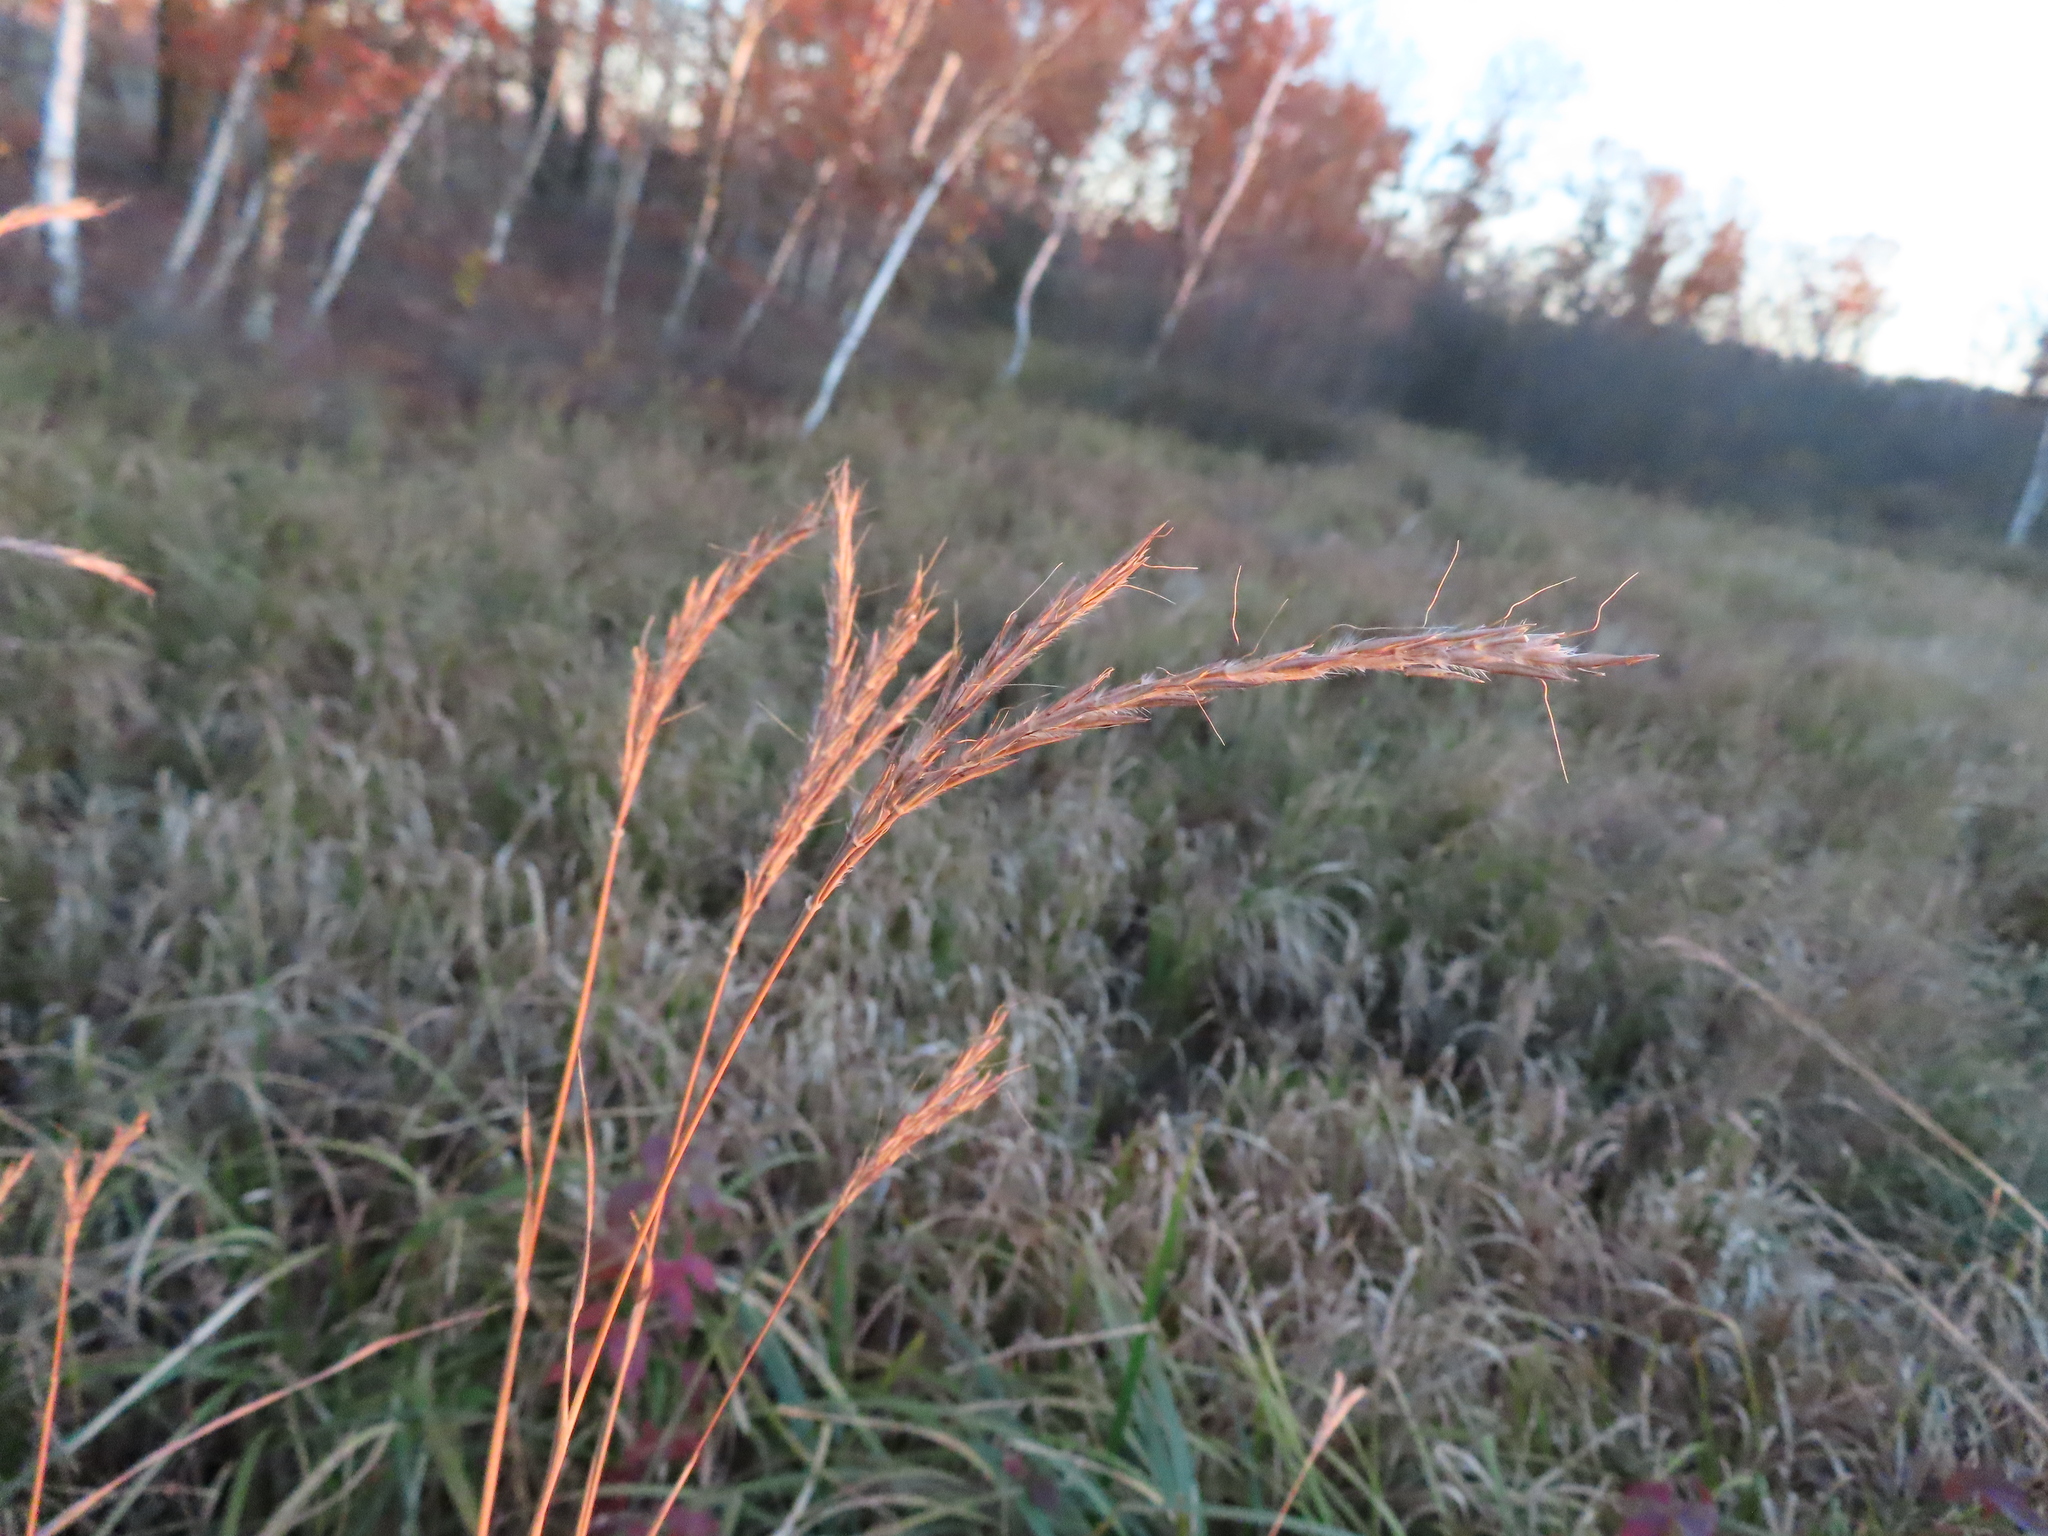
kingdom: Plantae
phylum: Tracheophyta
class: Liliopsida
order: Poales
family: Poaceae
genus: Andropogon
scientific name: Andropogon gerardi
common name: Big bluestem
